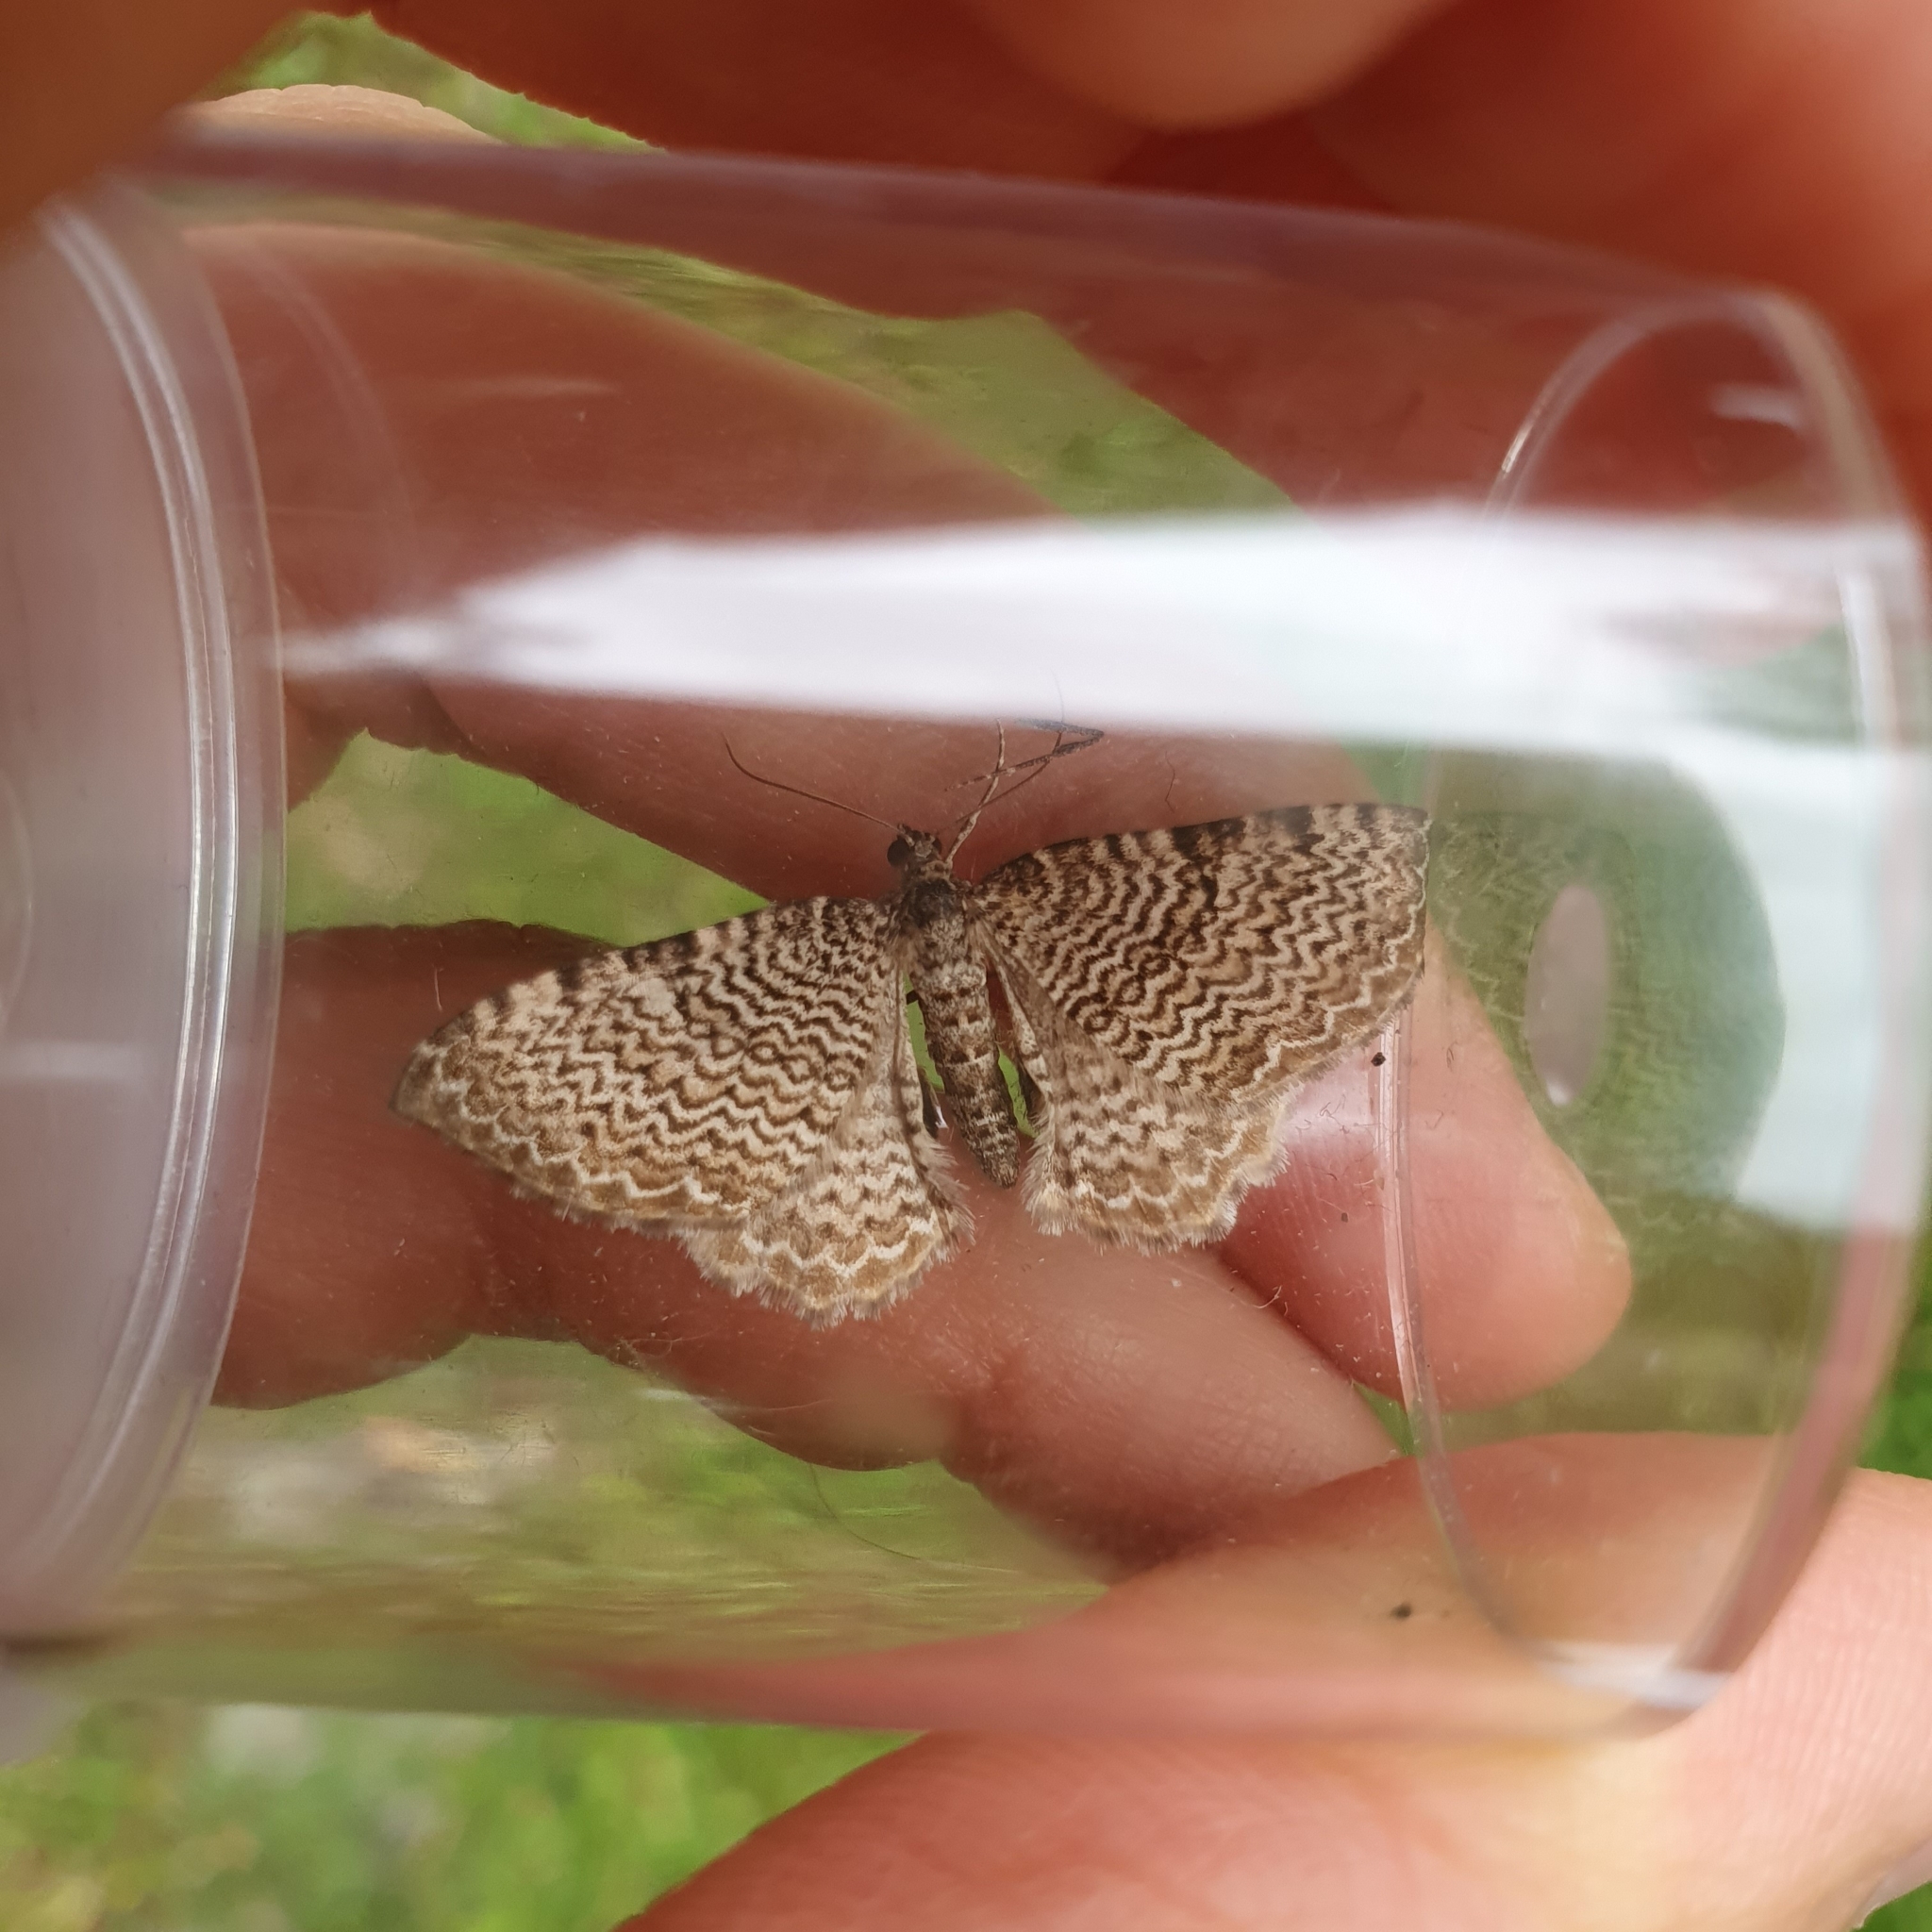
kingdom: Animalia
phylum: Arthropoda
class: Insecta
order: Lepidoptera
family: Geometridae
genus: Rheumaptera
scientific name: Rheumaptera undulata
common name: Scallop shell
